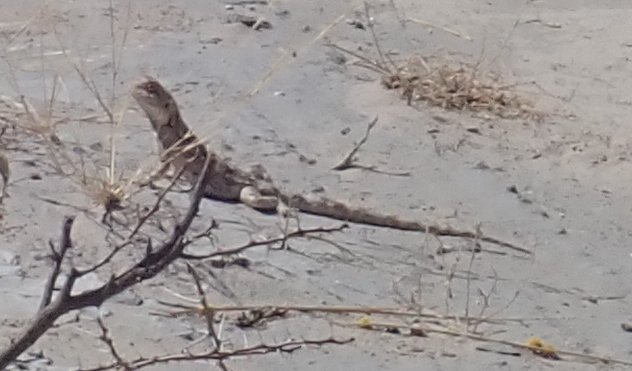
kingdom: Animalia
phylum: Chordata
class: Squamata
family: Agamidae
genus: Agama
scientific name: Agama aculeata
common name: Common ground agama
